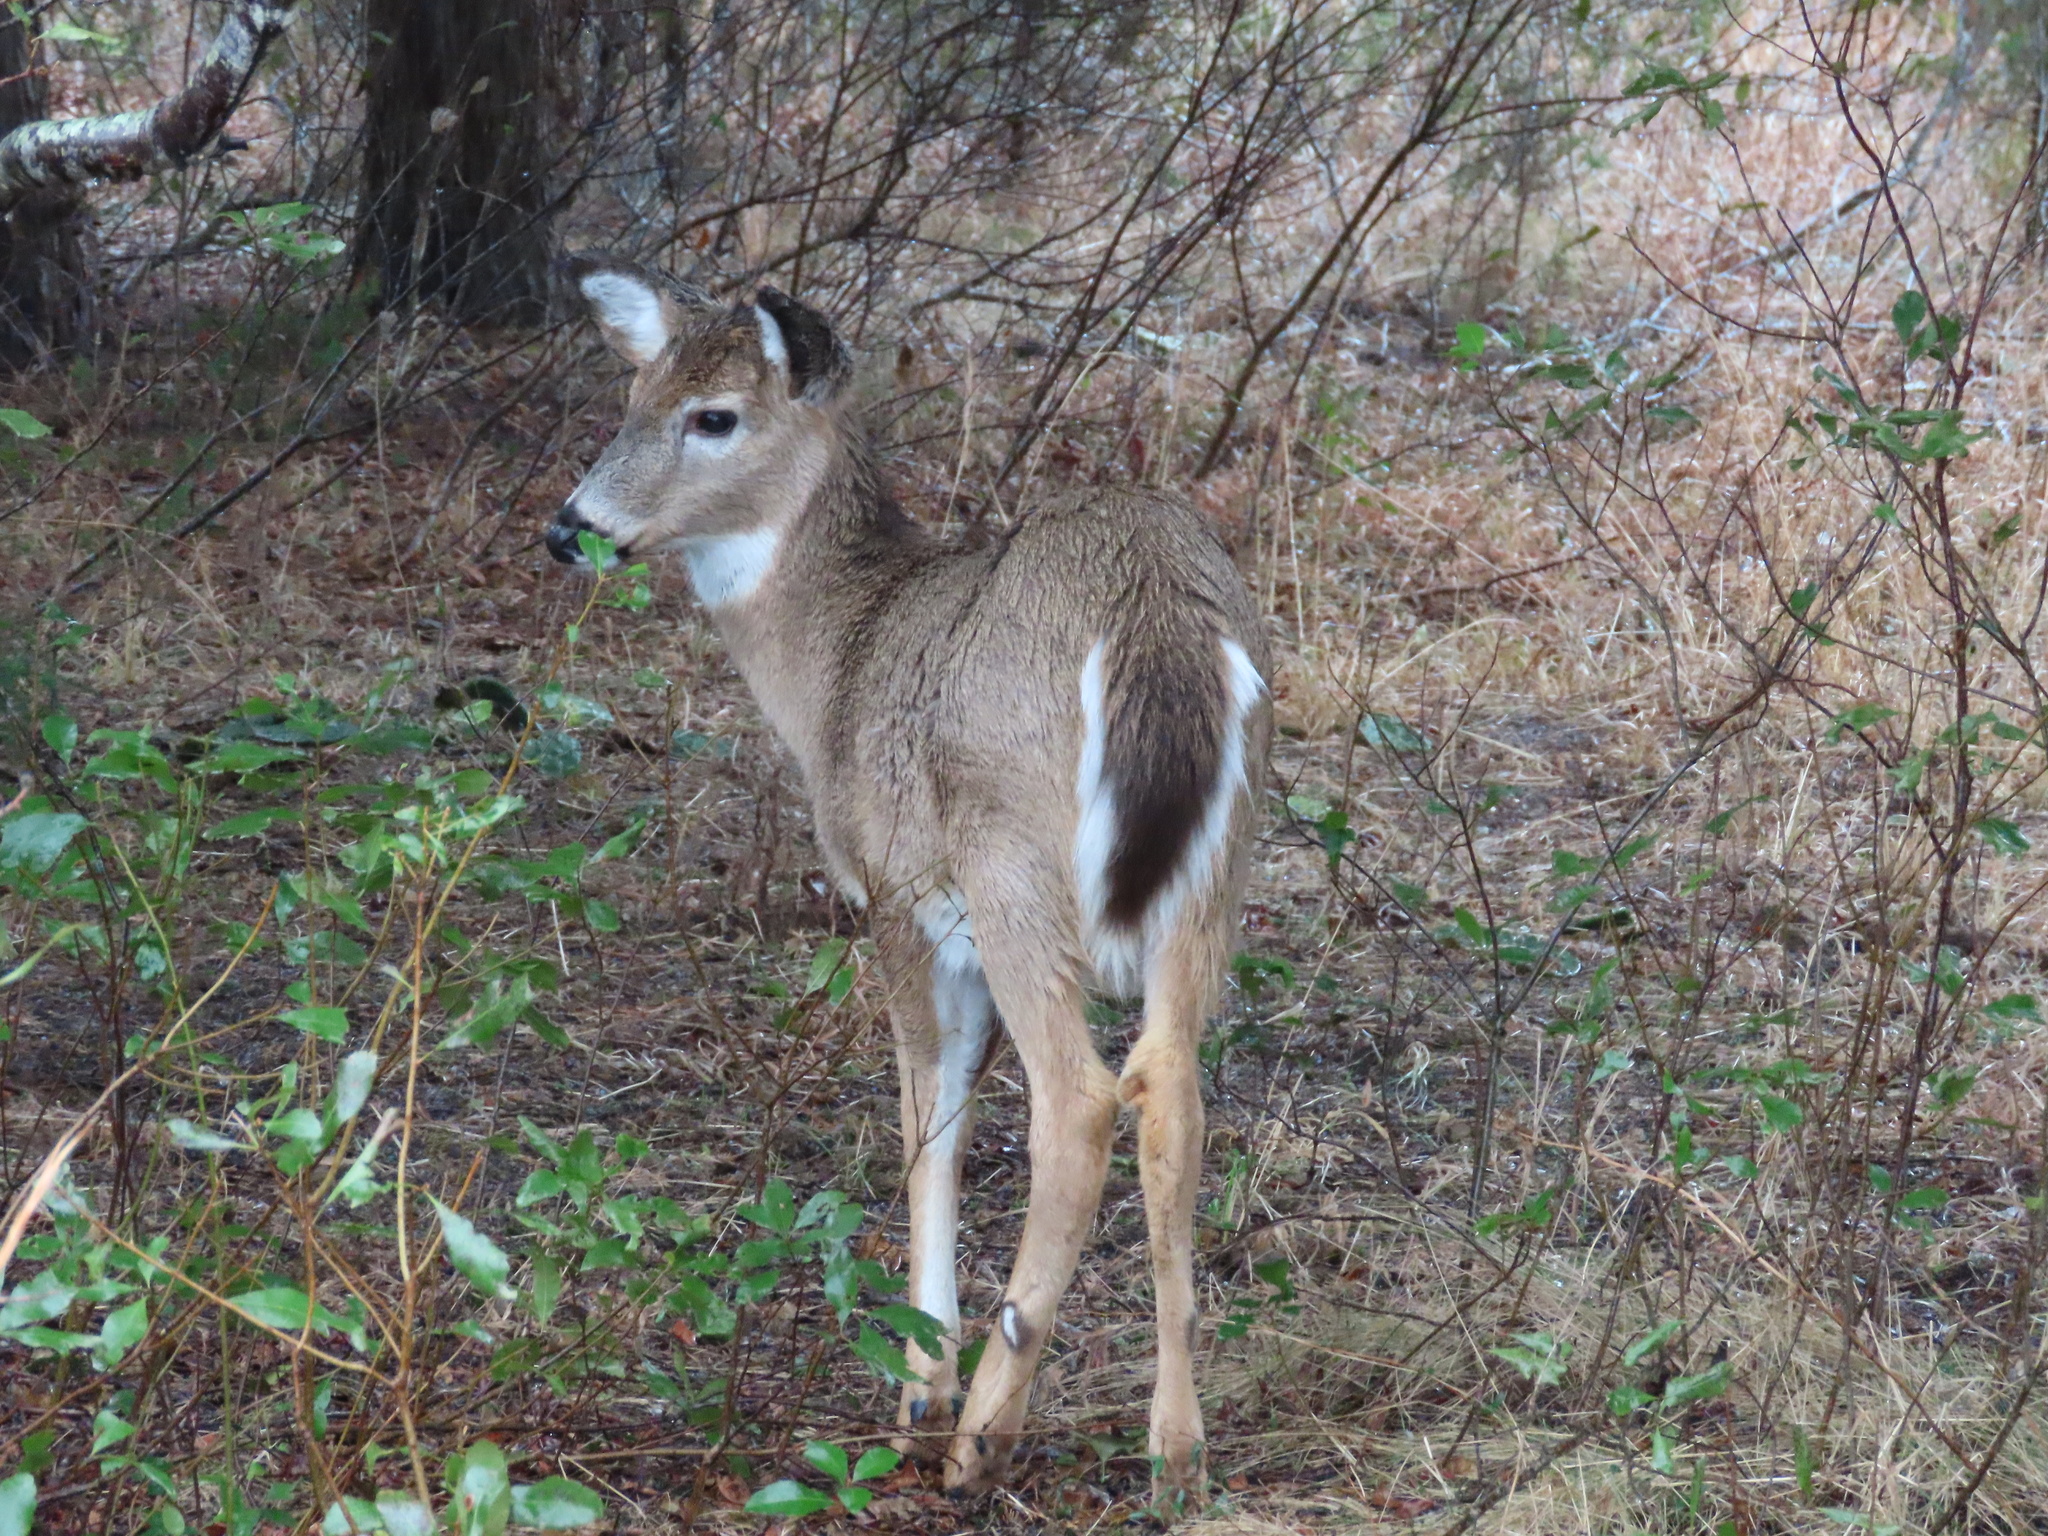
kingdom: Animalia
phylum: Chordata
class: Mammalia
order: Artiodactyla
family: Cervidae
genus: Odocoileus
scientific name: Odocoileus virginianus
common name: White-tailed deer
